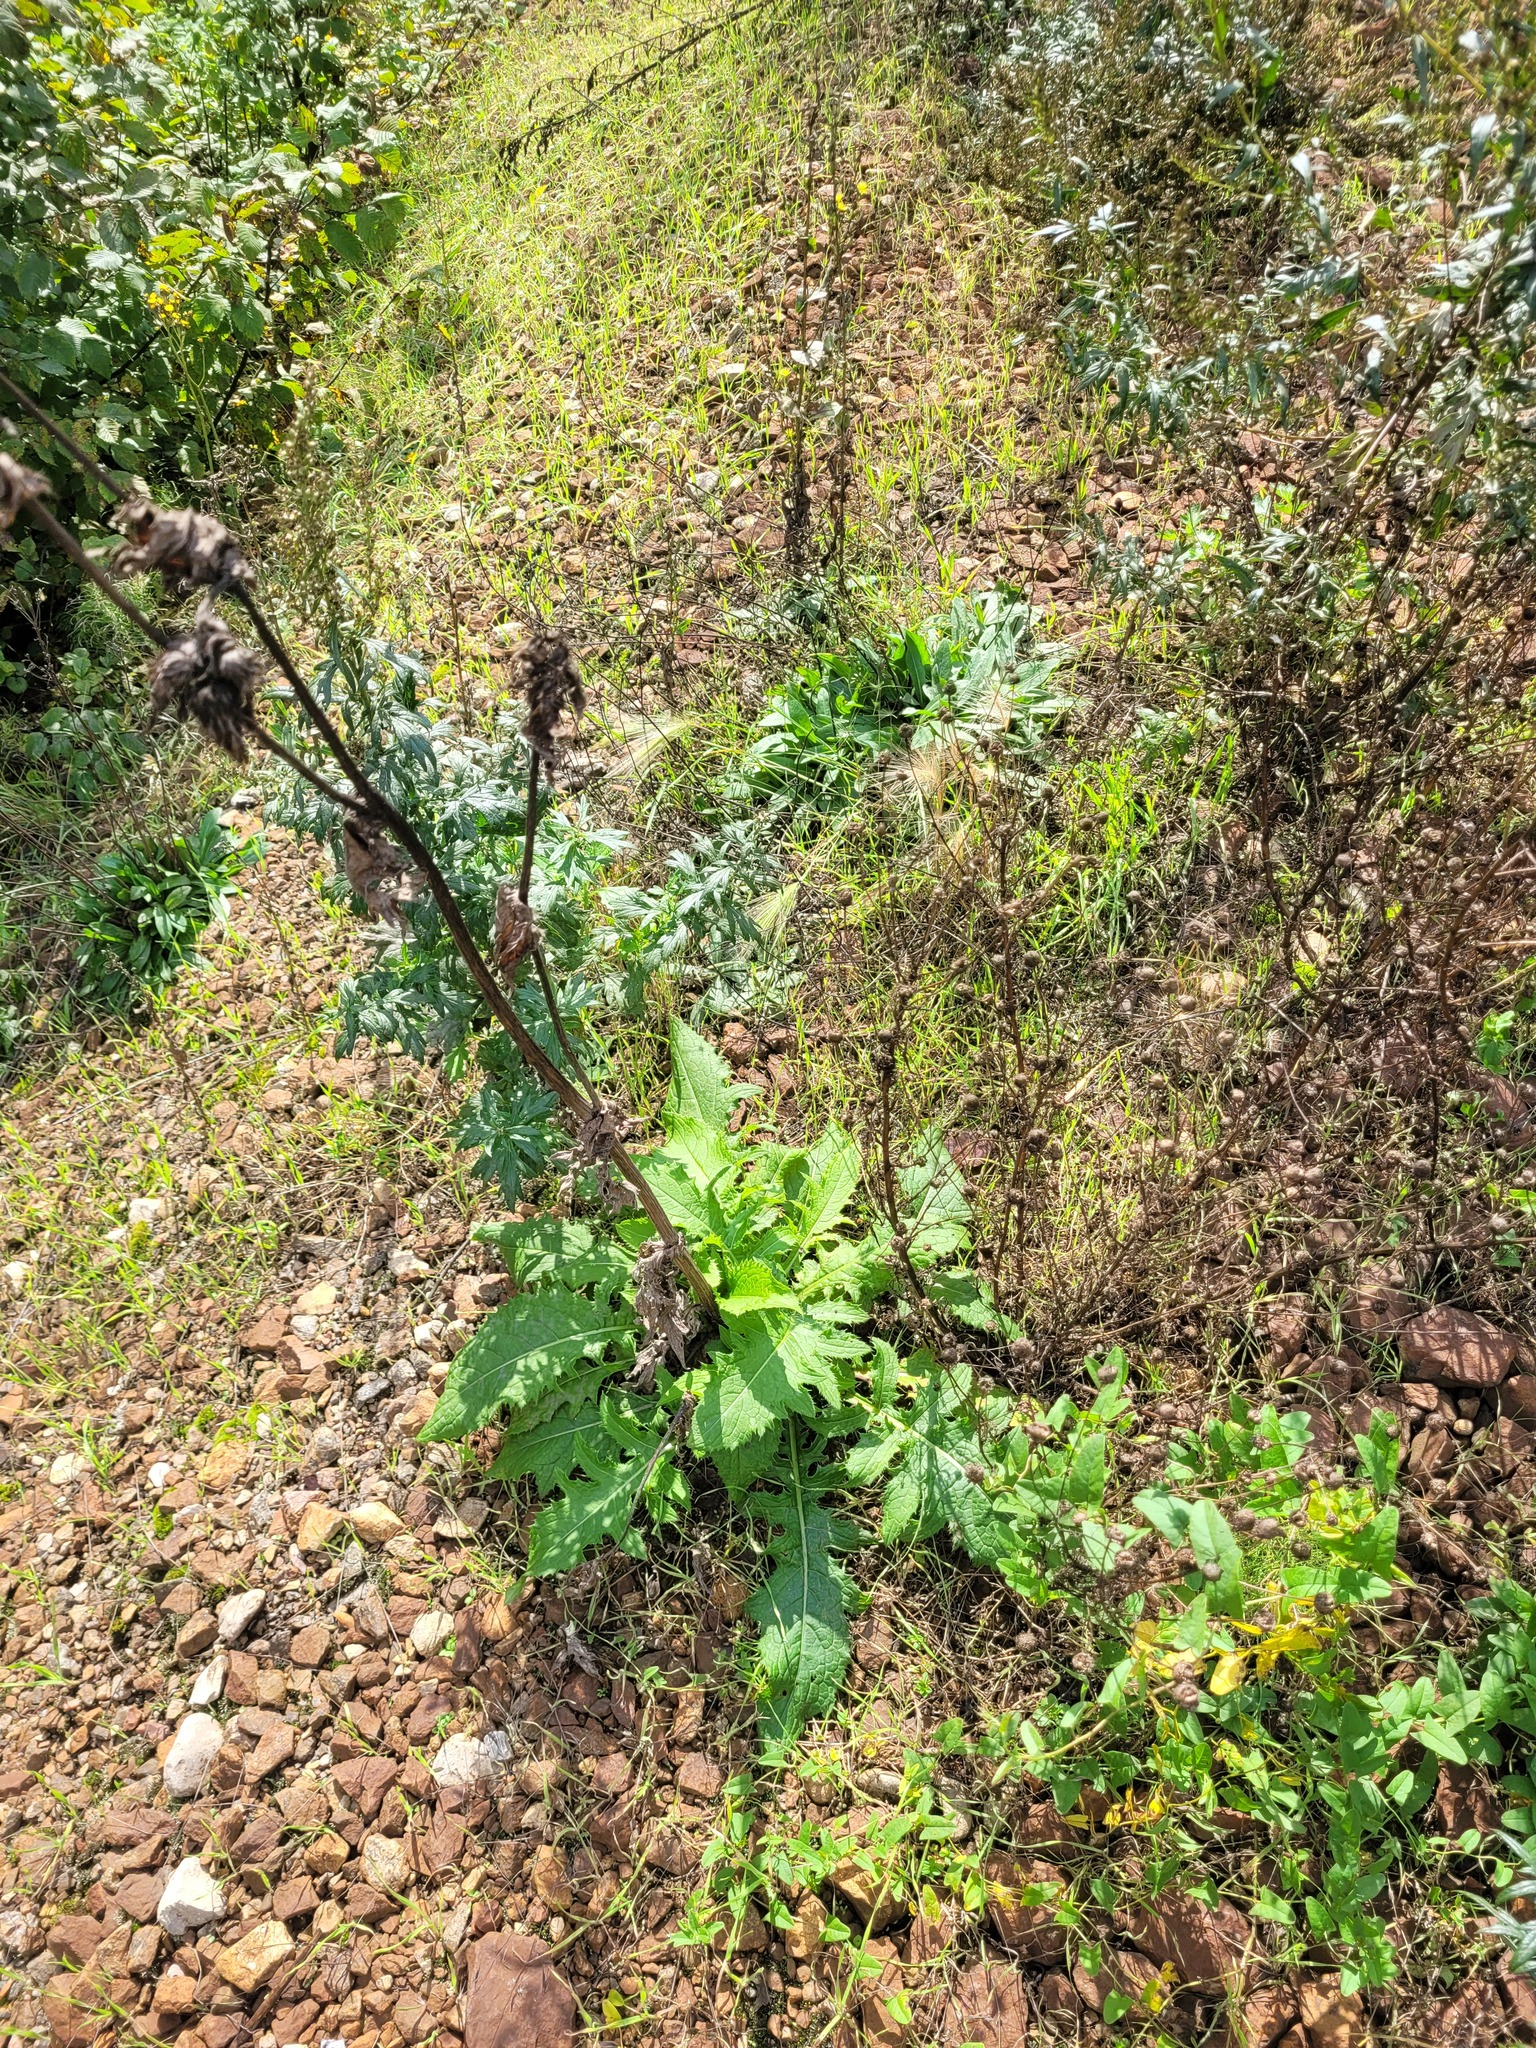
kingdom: Plantae
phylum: Tracheophyta
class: Magnoliopsida
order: Asterales
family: Asteraceae
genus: Cirsium
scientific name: Cirsium oleraceum
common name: Cabbage thistle
